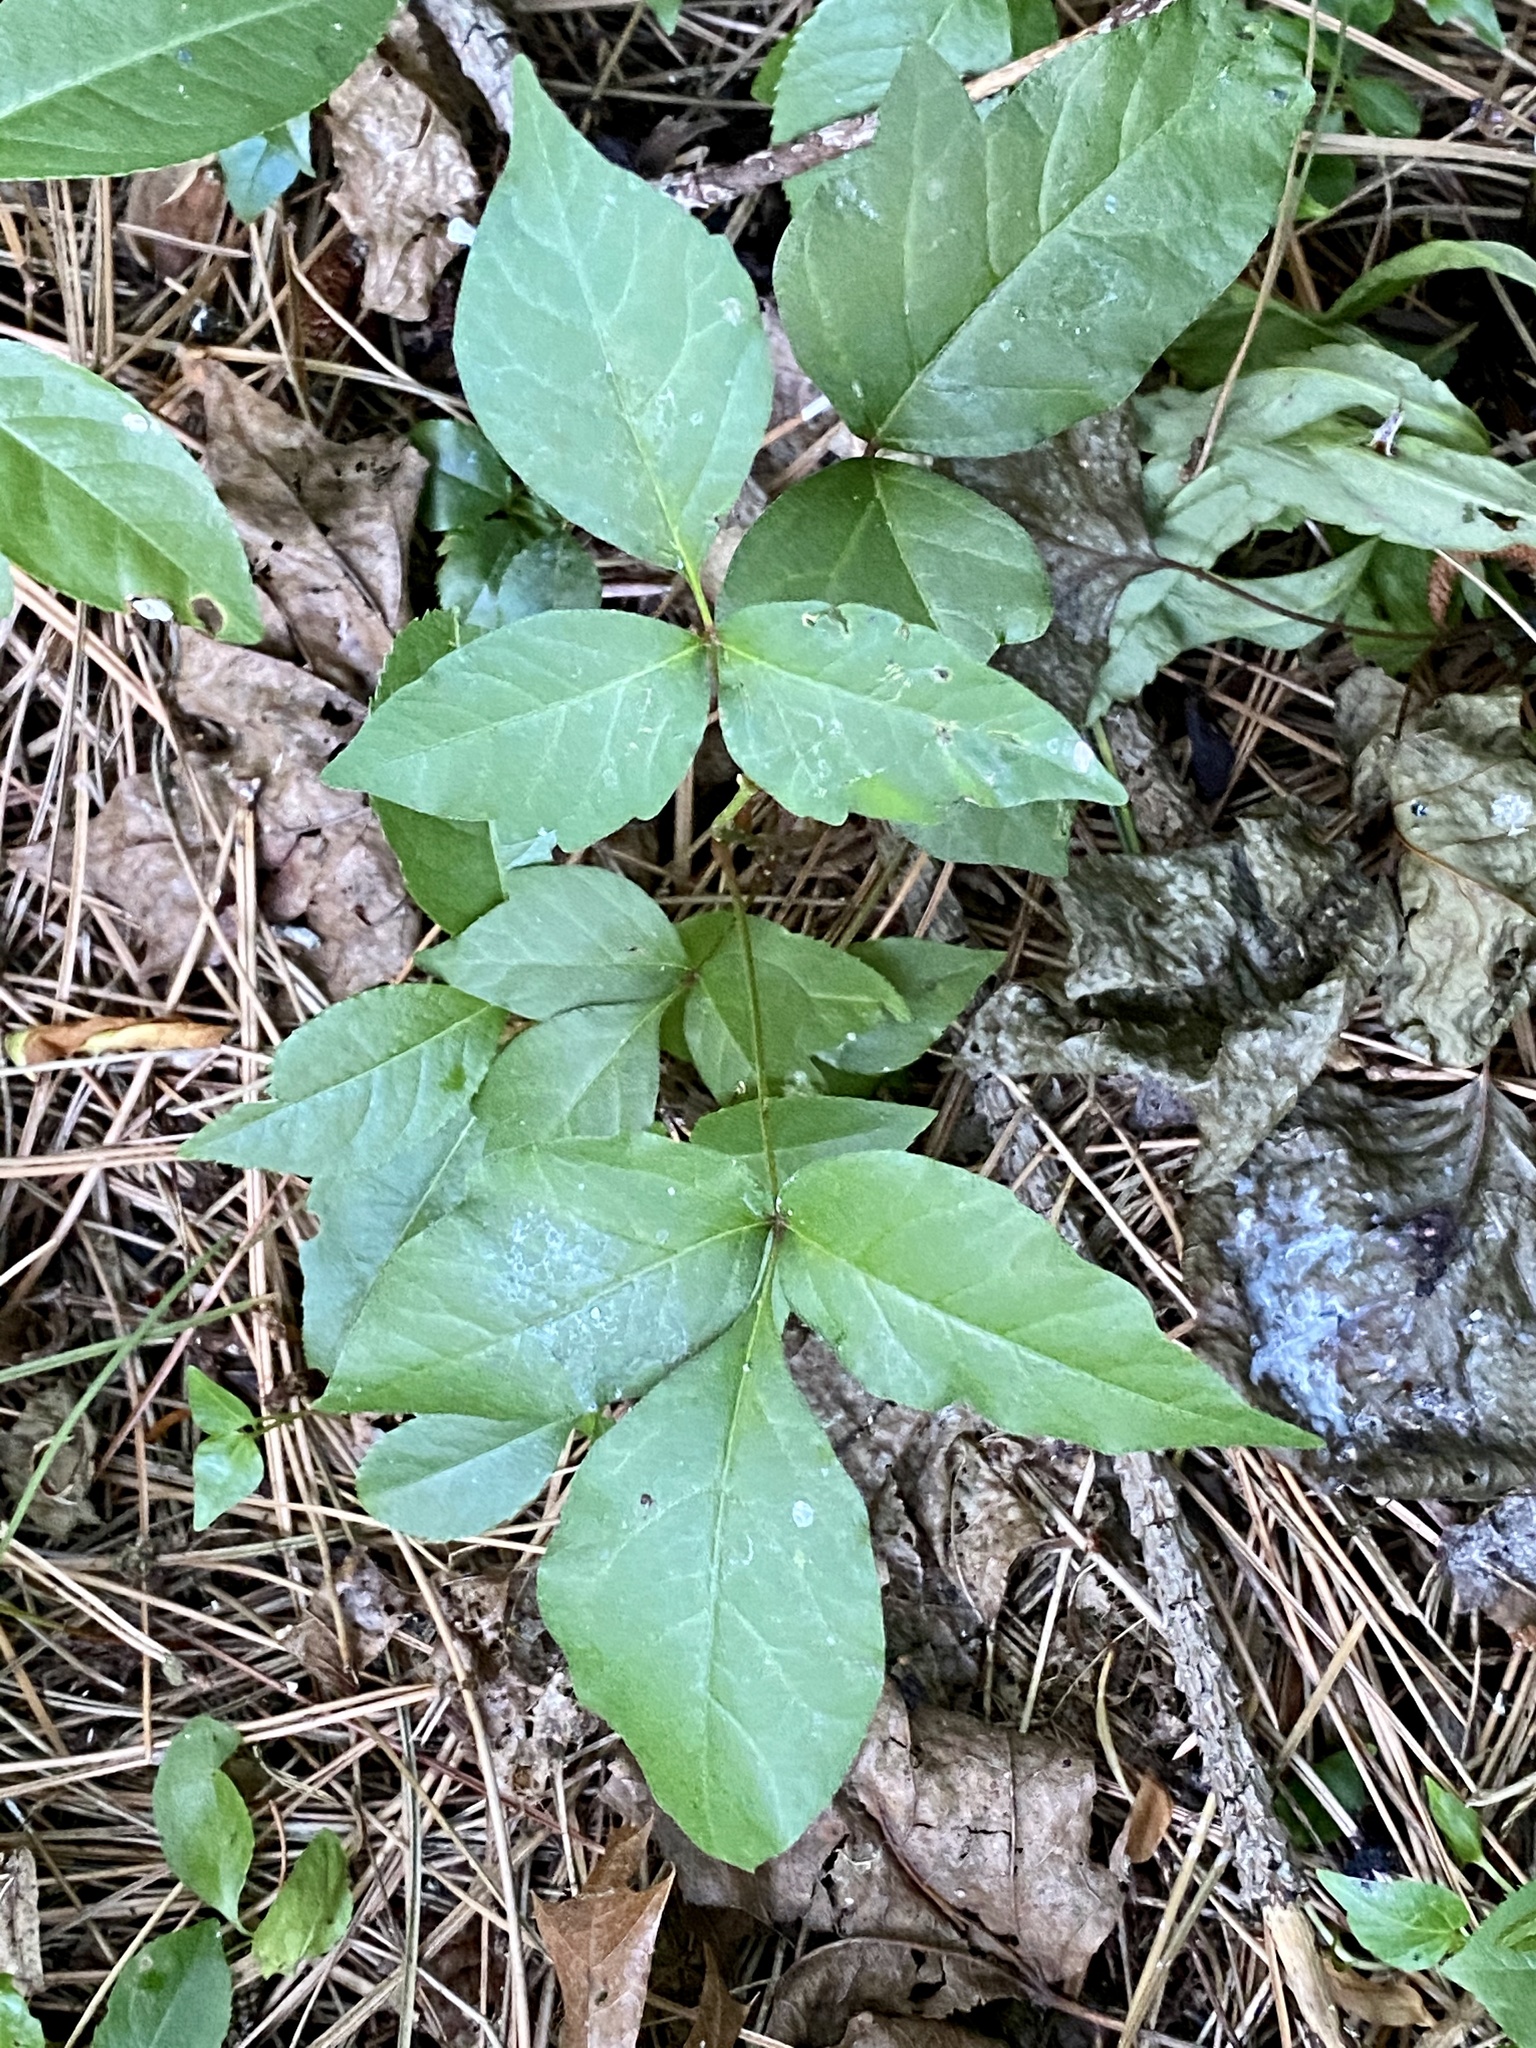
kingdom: Plantae
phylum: Tracheophyta
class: Magnoliopsida
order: Sapindales
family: Anacardiaceae
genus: Toxicodendron
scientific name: Toxicodendron radicans
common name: Poison ivy
